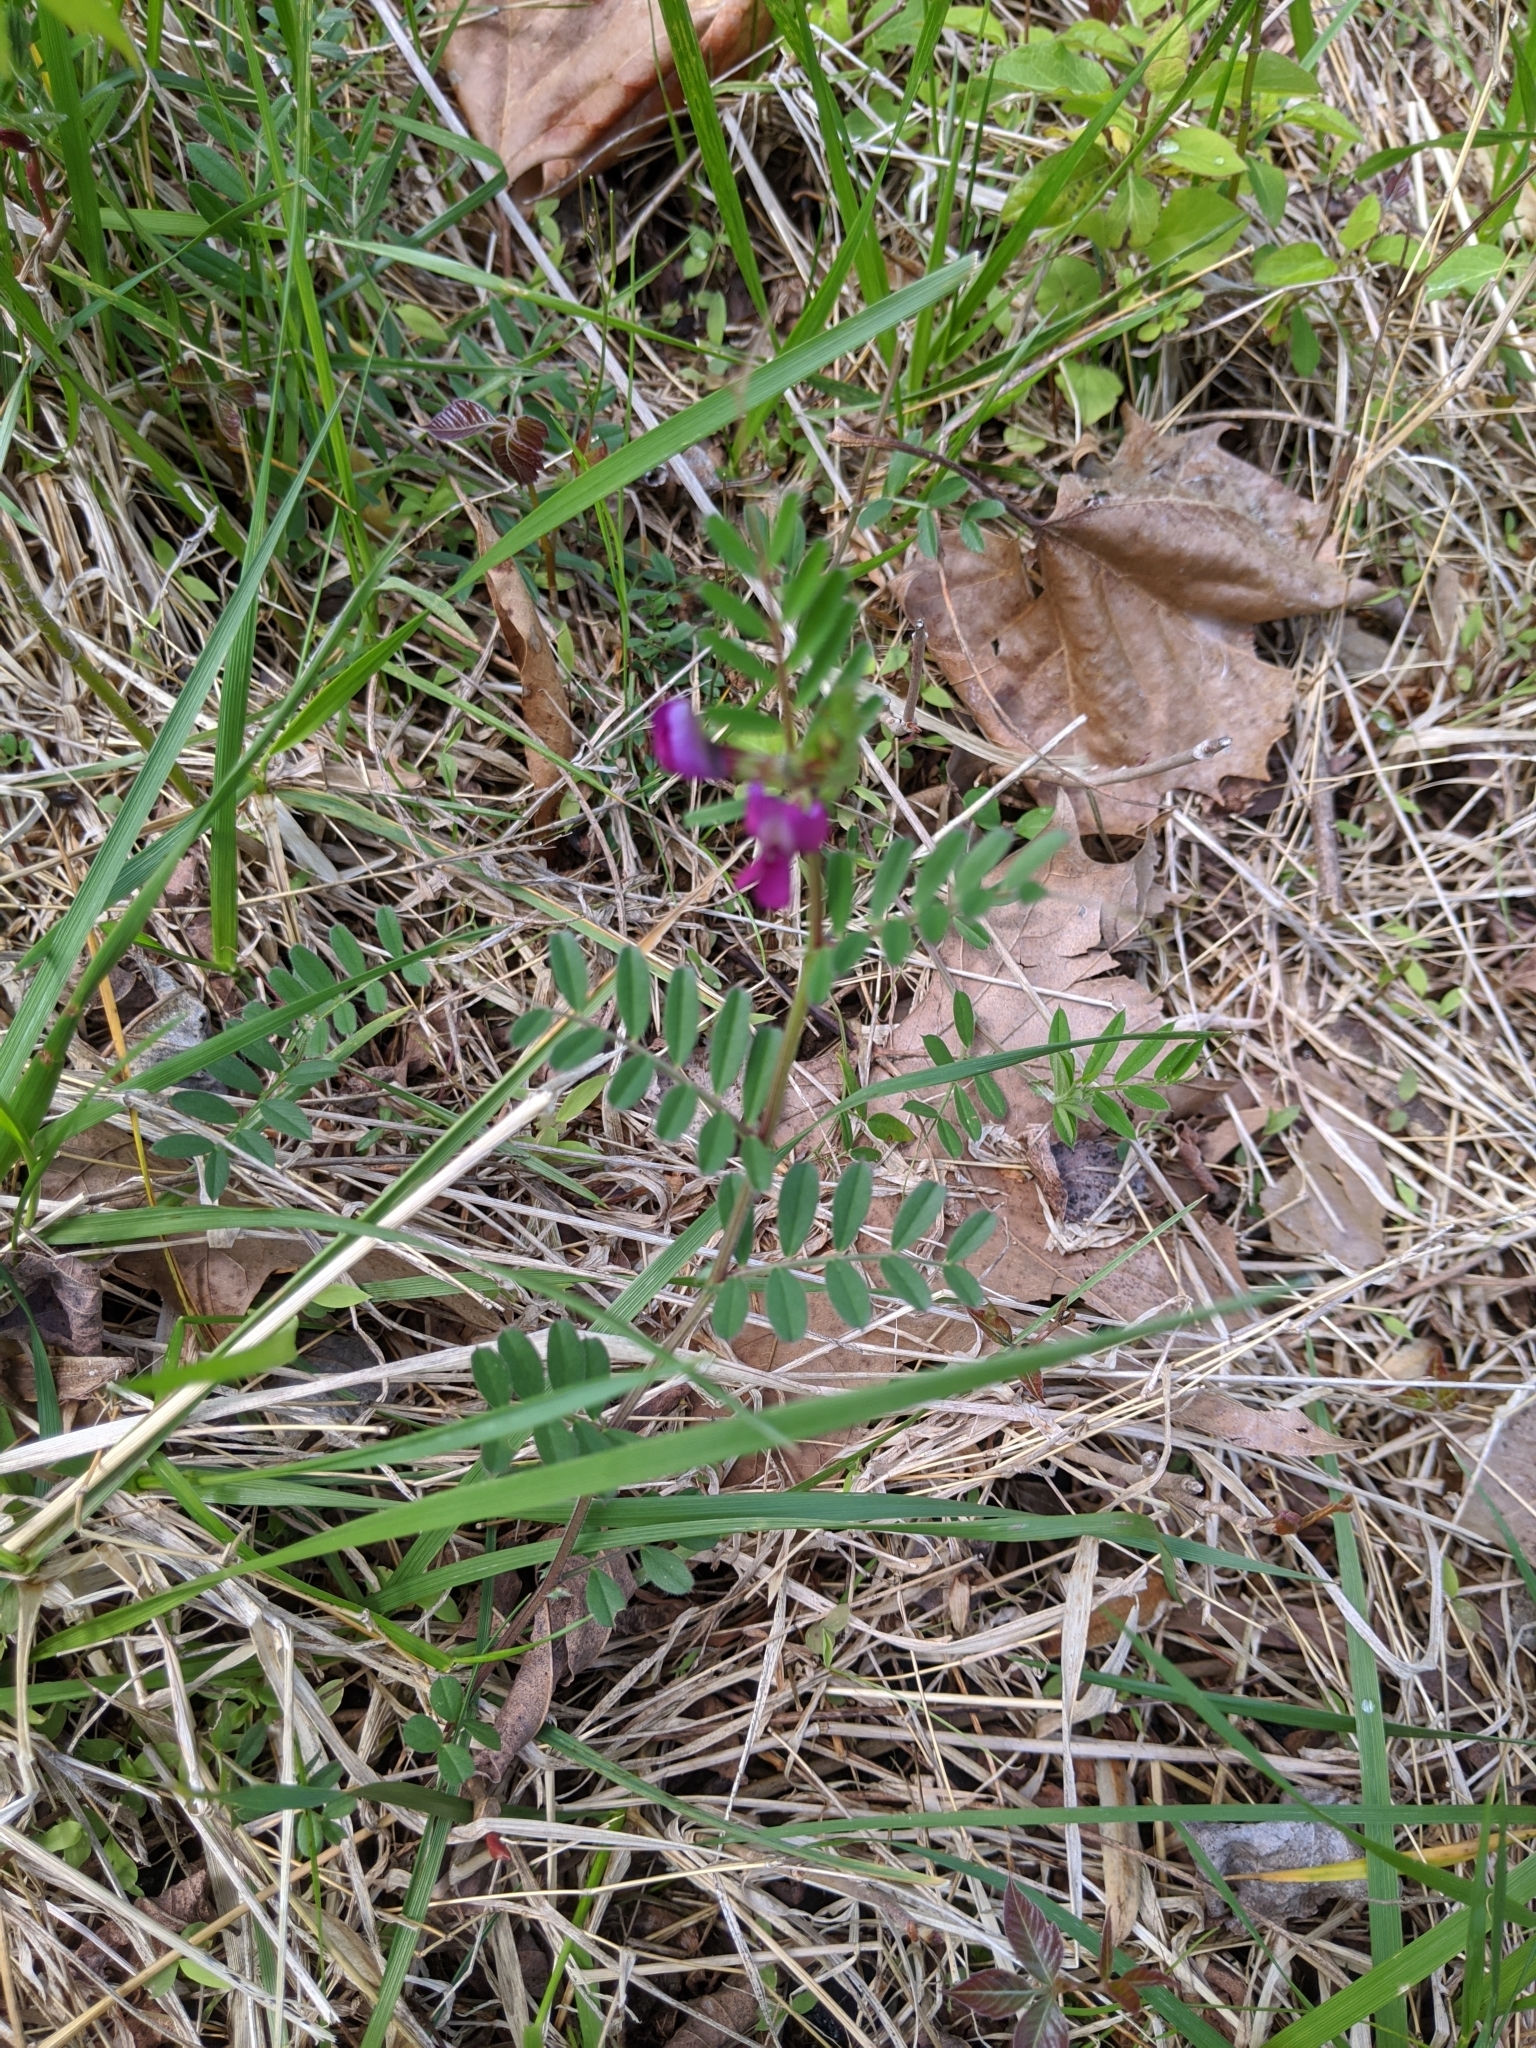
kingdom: Plantae
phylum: Tracheophyta
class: Magnoliopsida
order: Fabales
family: Fabaceae
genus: Vicia
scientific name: Vicia sativa
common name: Garden vetch
